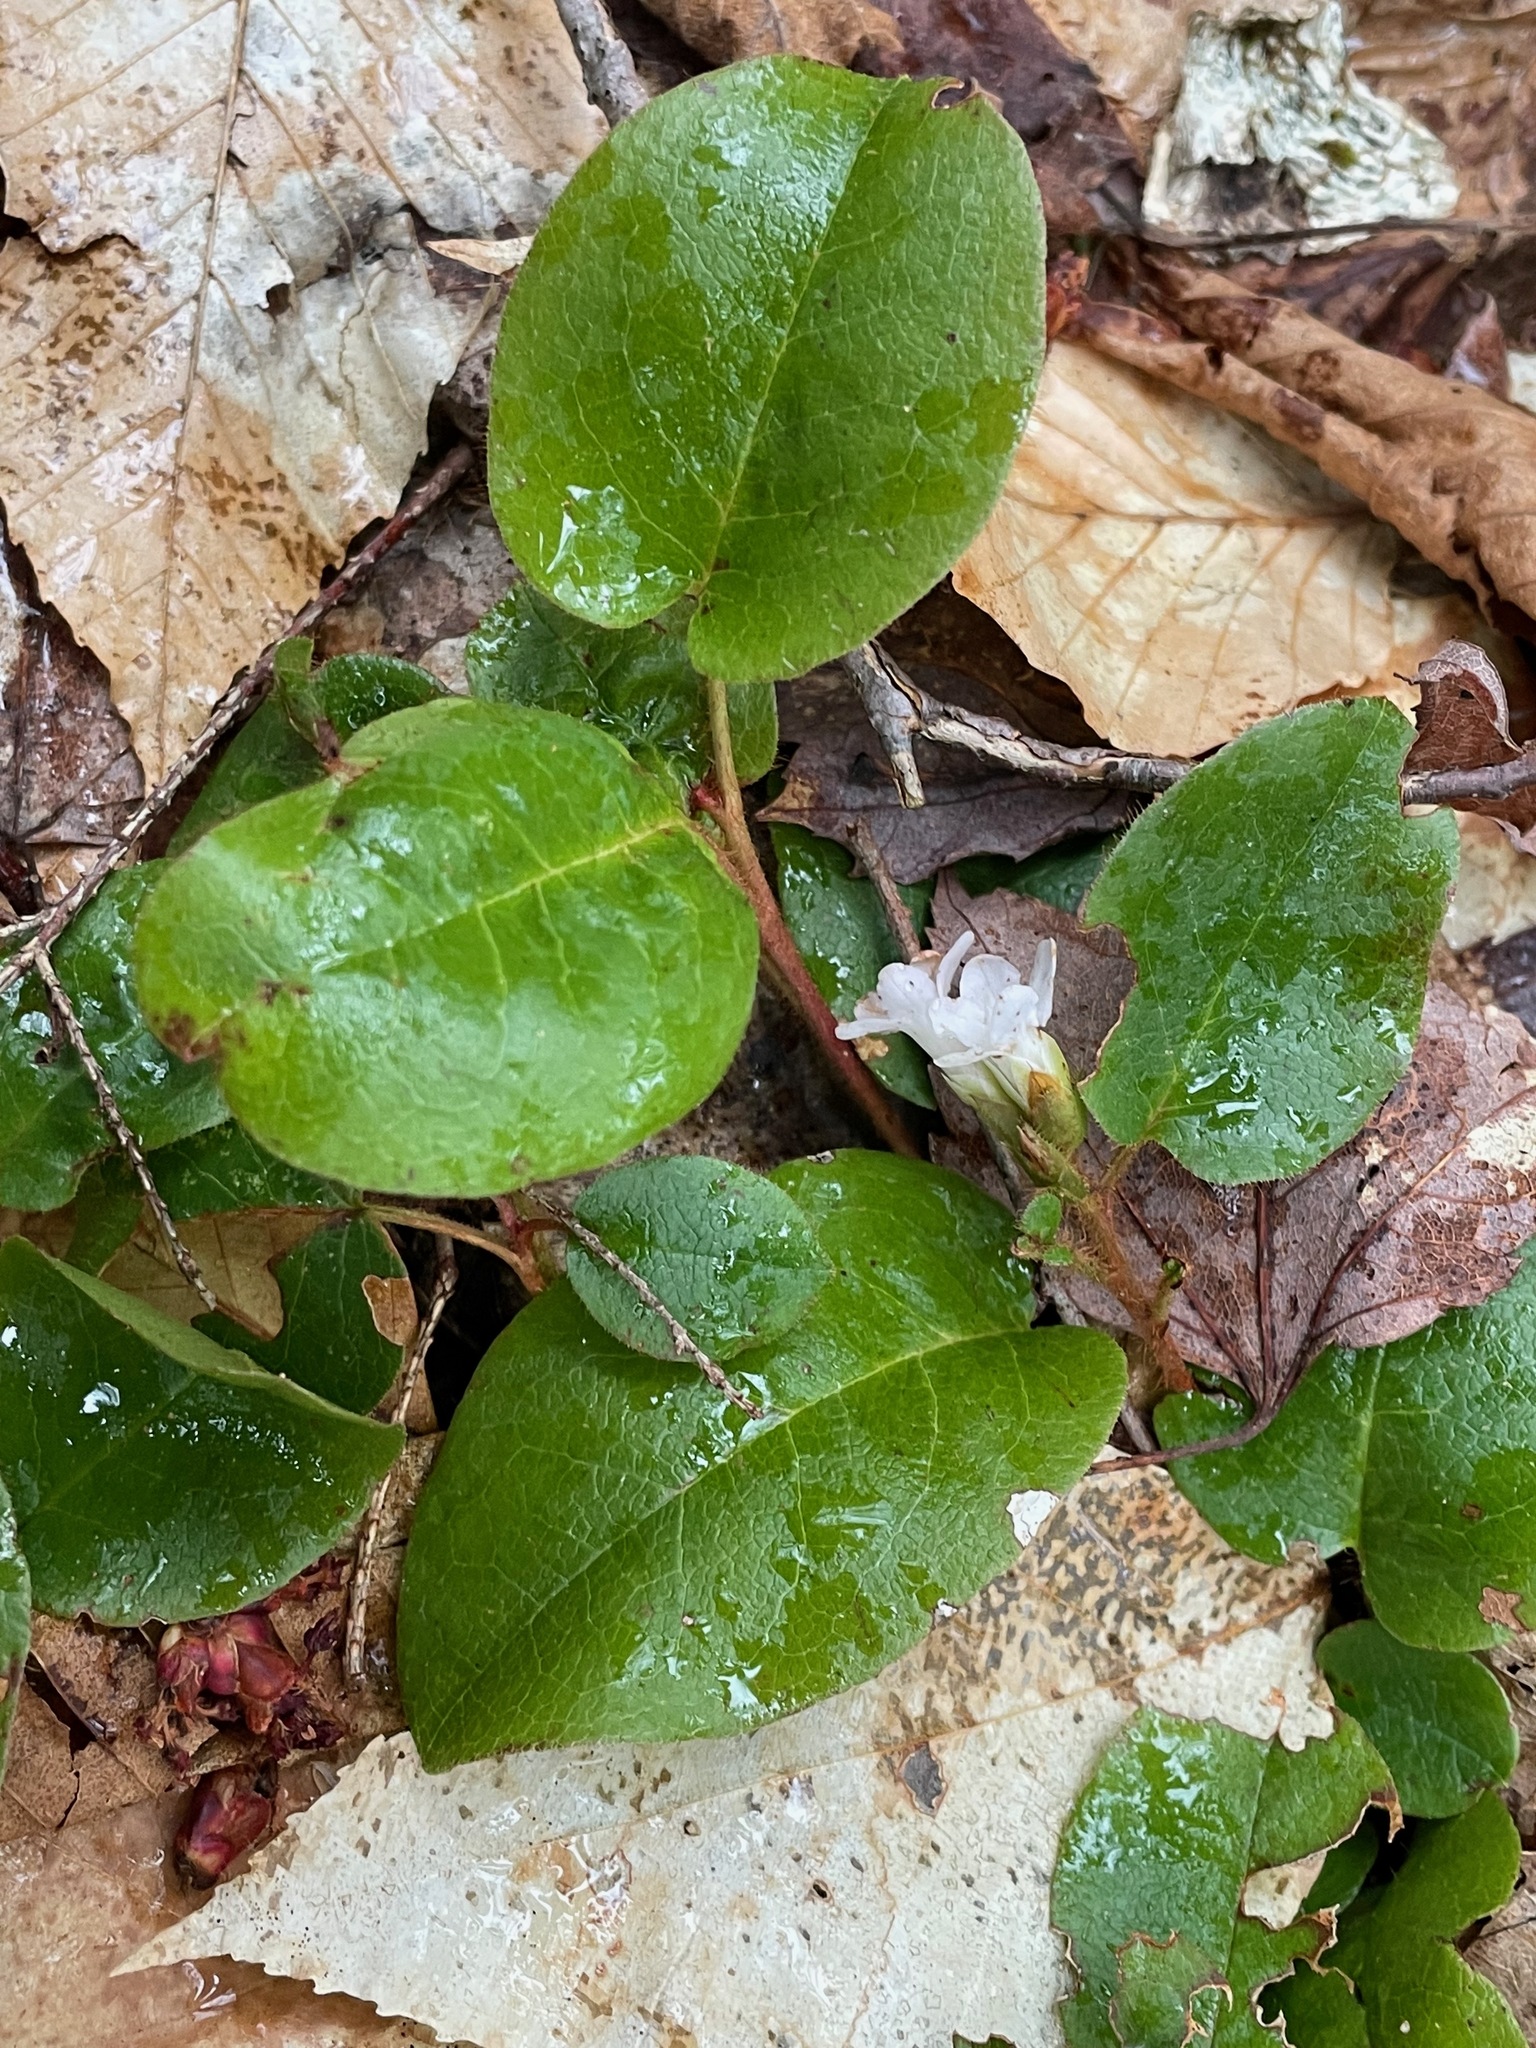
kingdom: Plantae
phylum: Tracheophyta
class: Magnoliopsida
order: Ericales
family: Ericaceae
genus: Epigaea
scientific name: Epigaea repens
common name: Gravelroot
